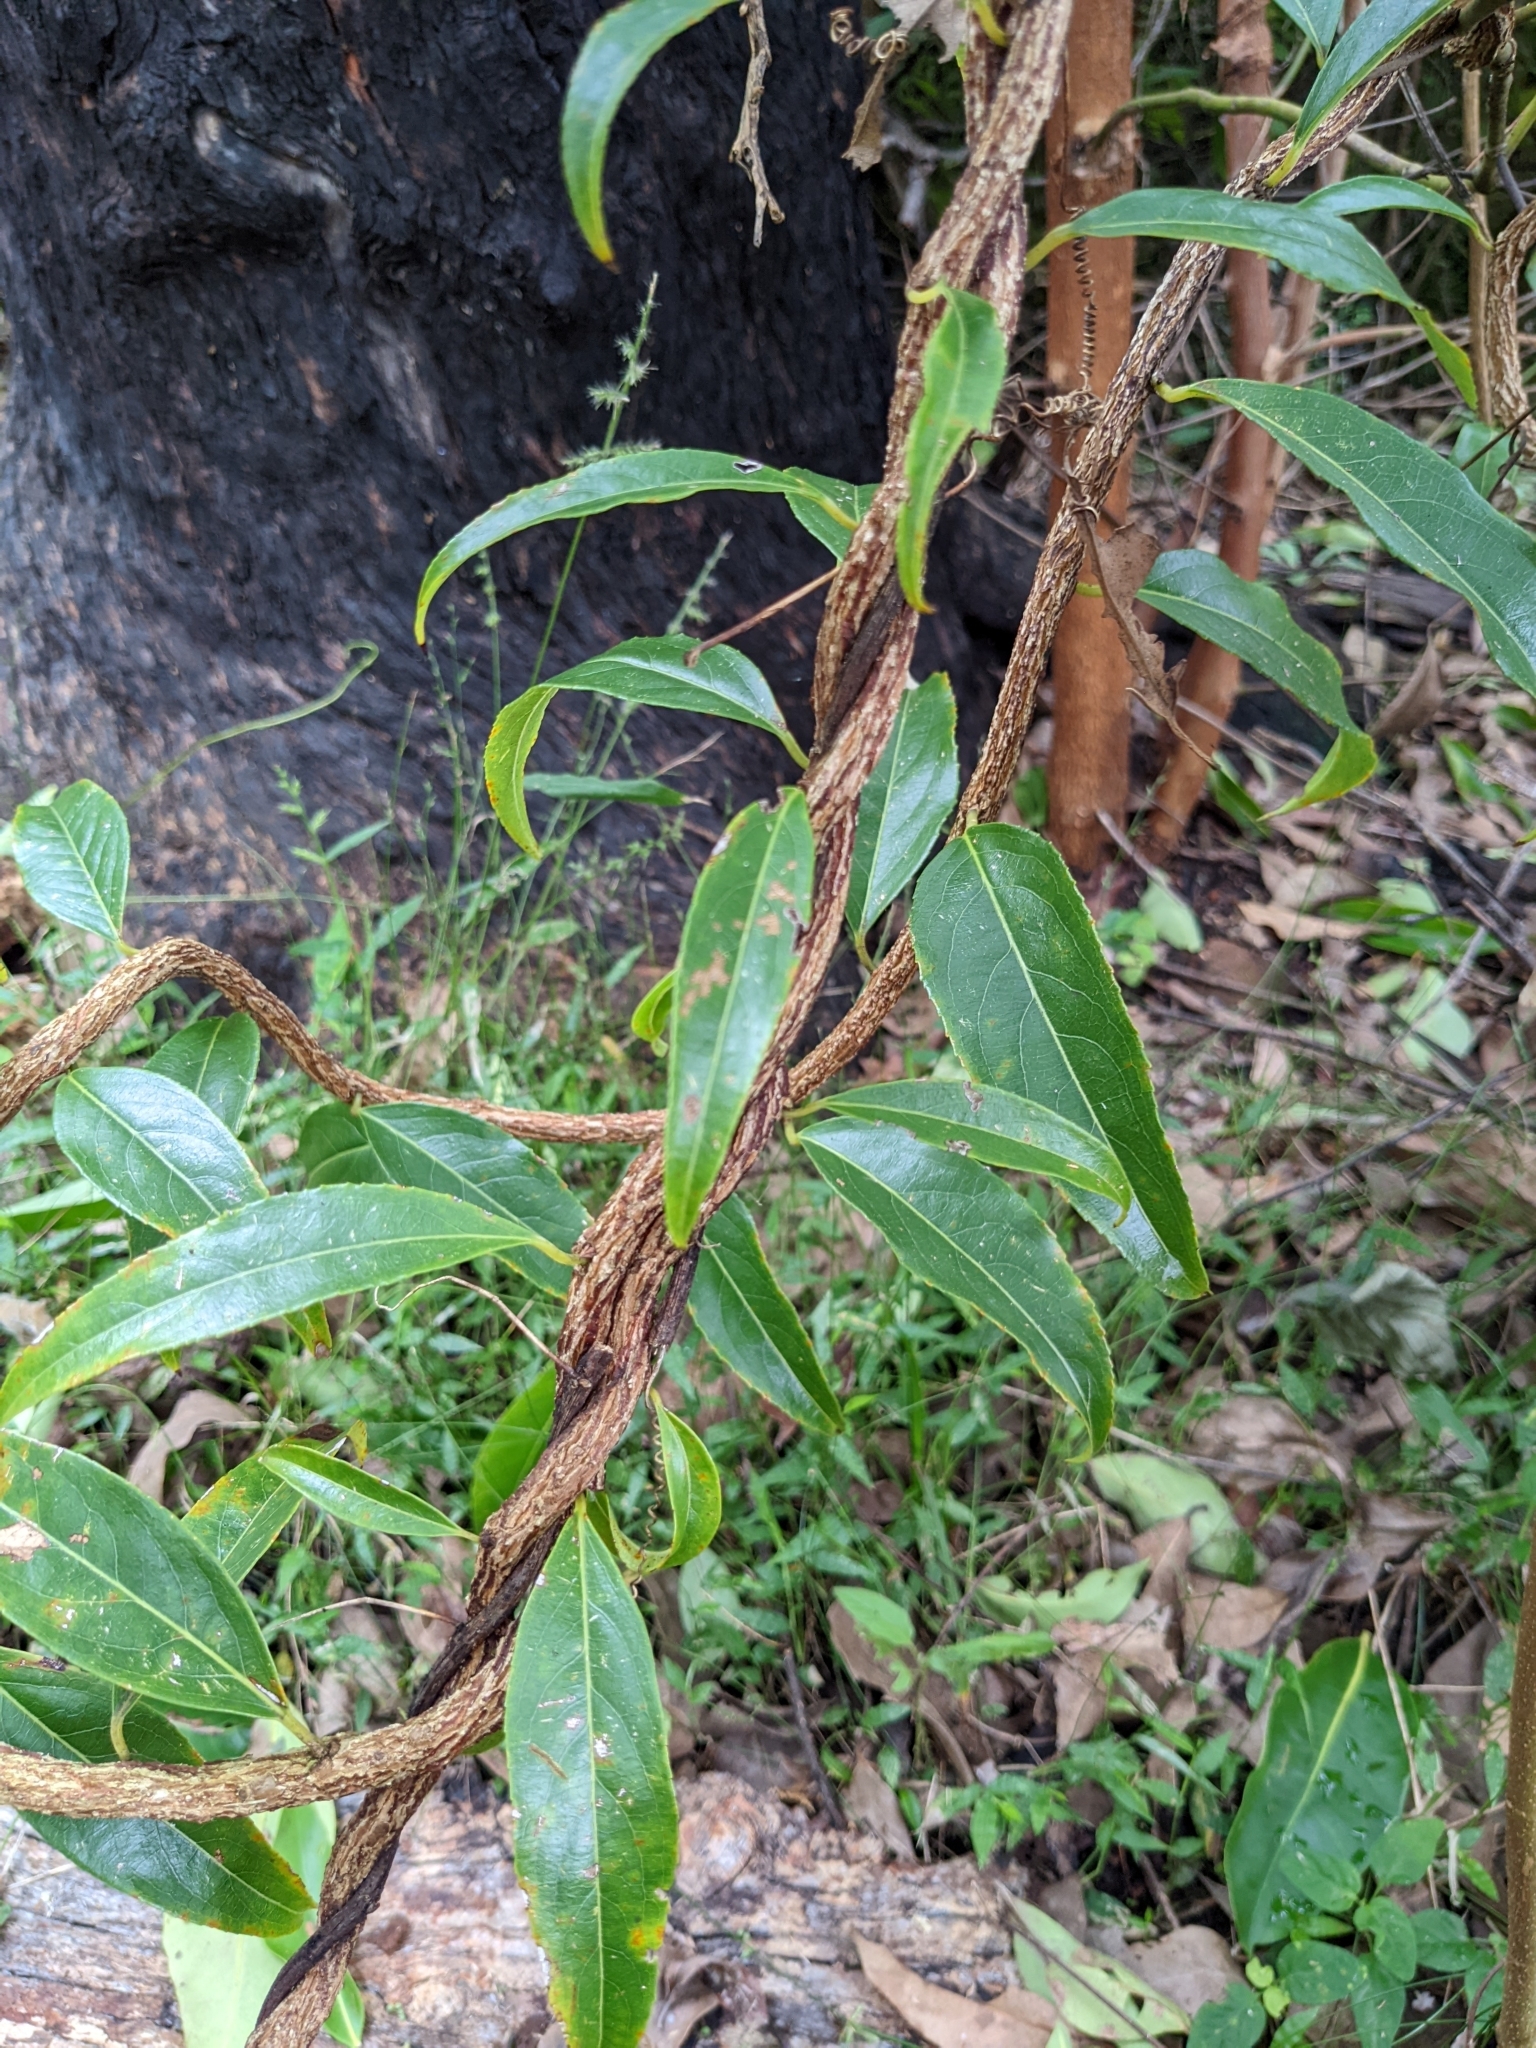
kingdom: Plantae
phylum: Tracheophyta
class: Magnoliopsida
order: Celastrales
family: Celastraceae
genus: Celastrus
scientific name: Celastrus subspicatus
